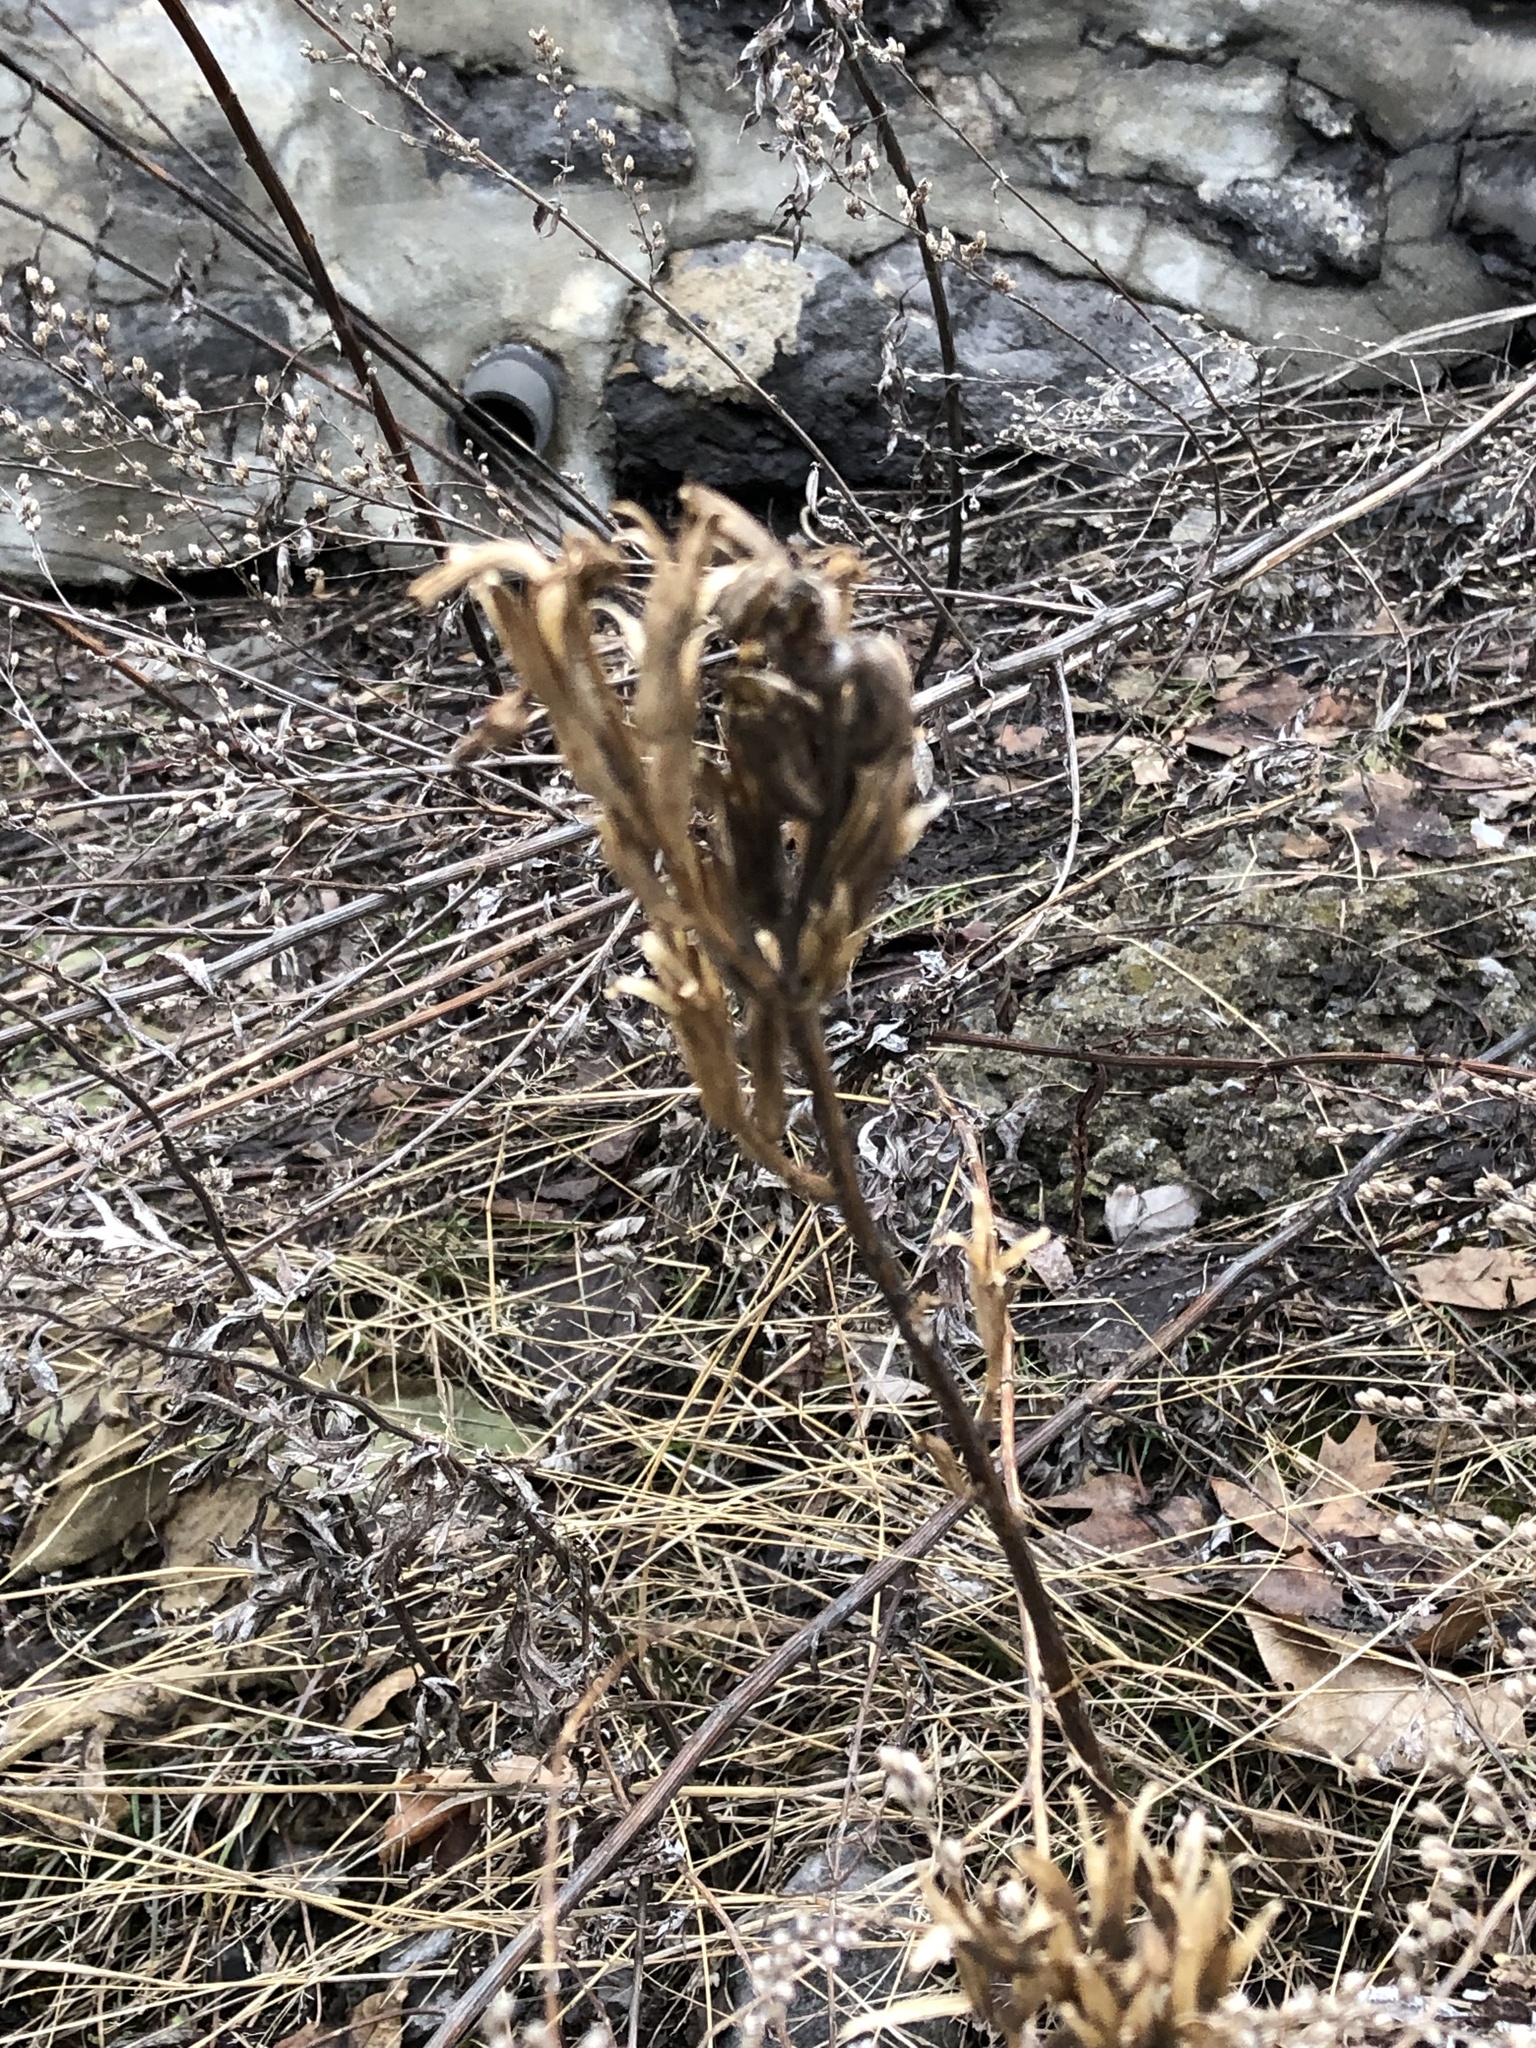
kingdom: Plantae
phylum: Tracheophyta
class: Magnoliopsida
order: Myrtales
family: Onagraceae
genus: Oenothera
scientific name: Oenothera
